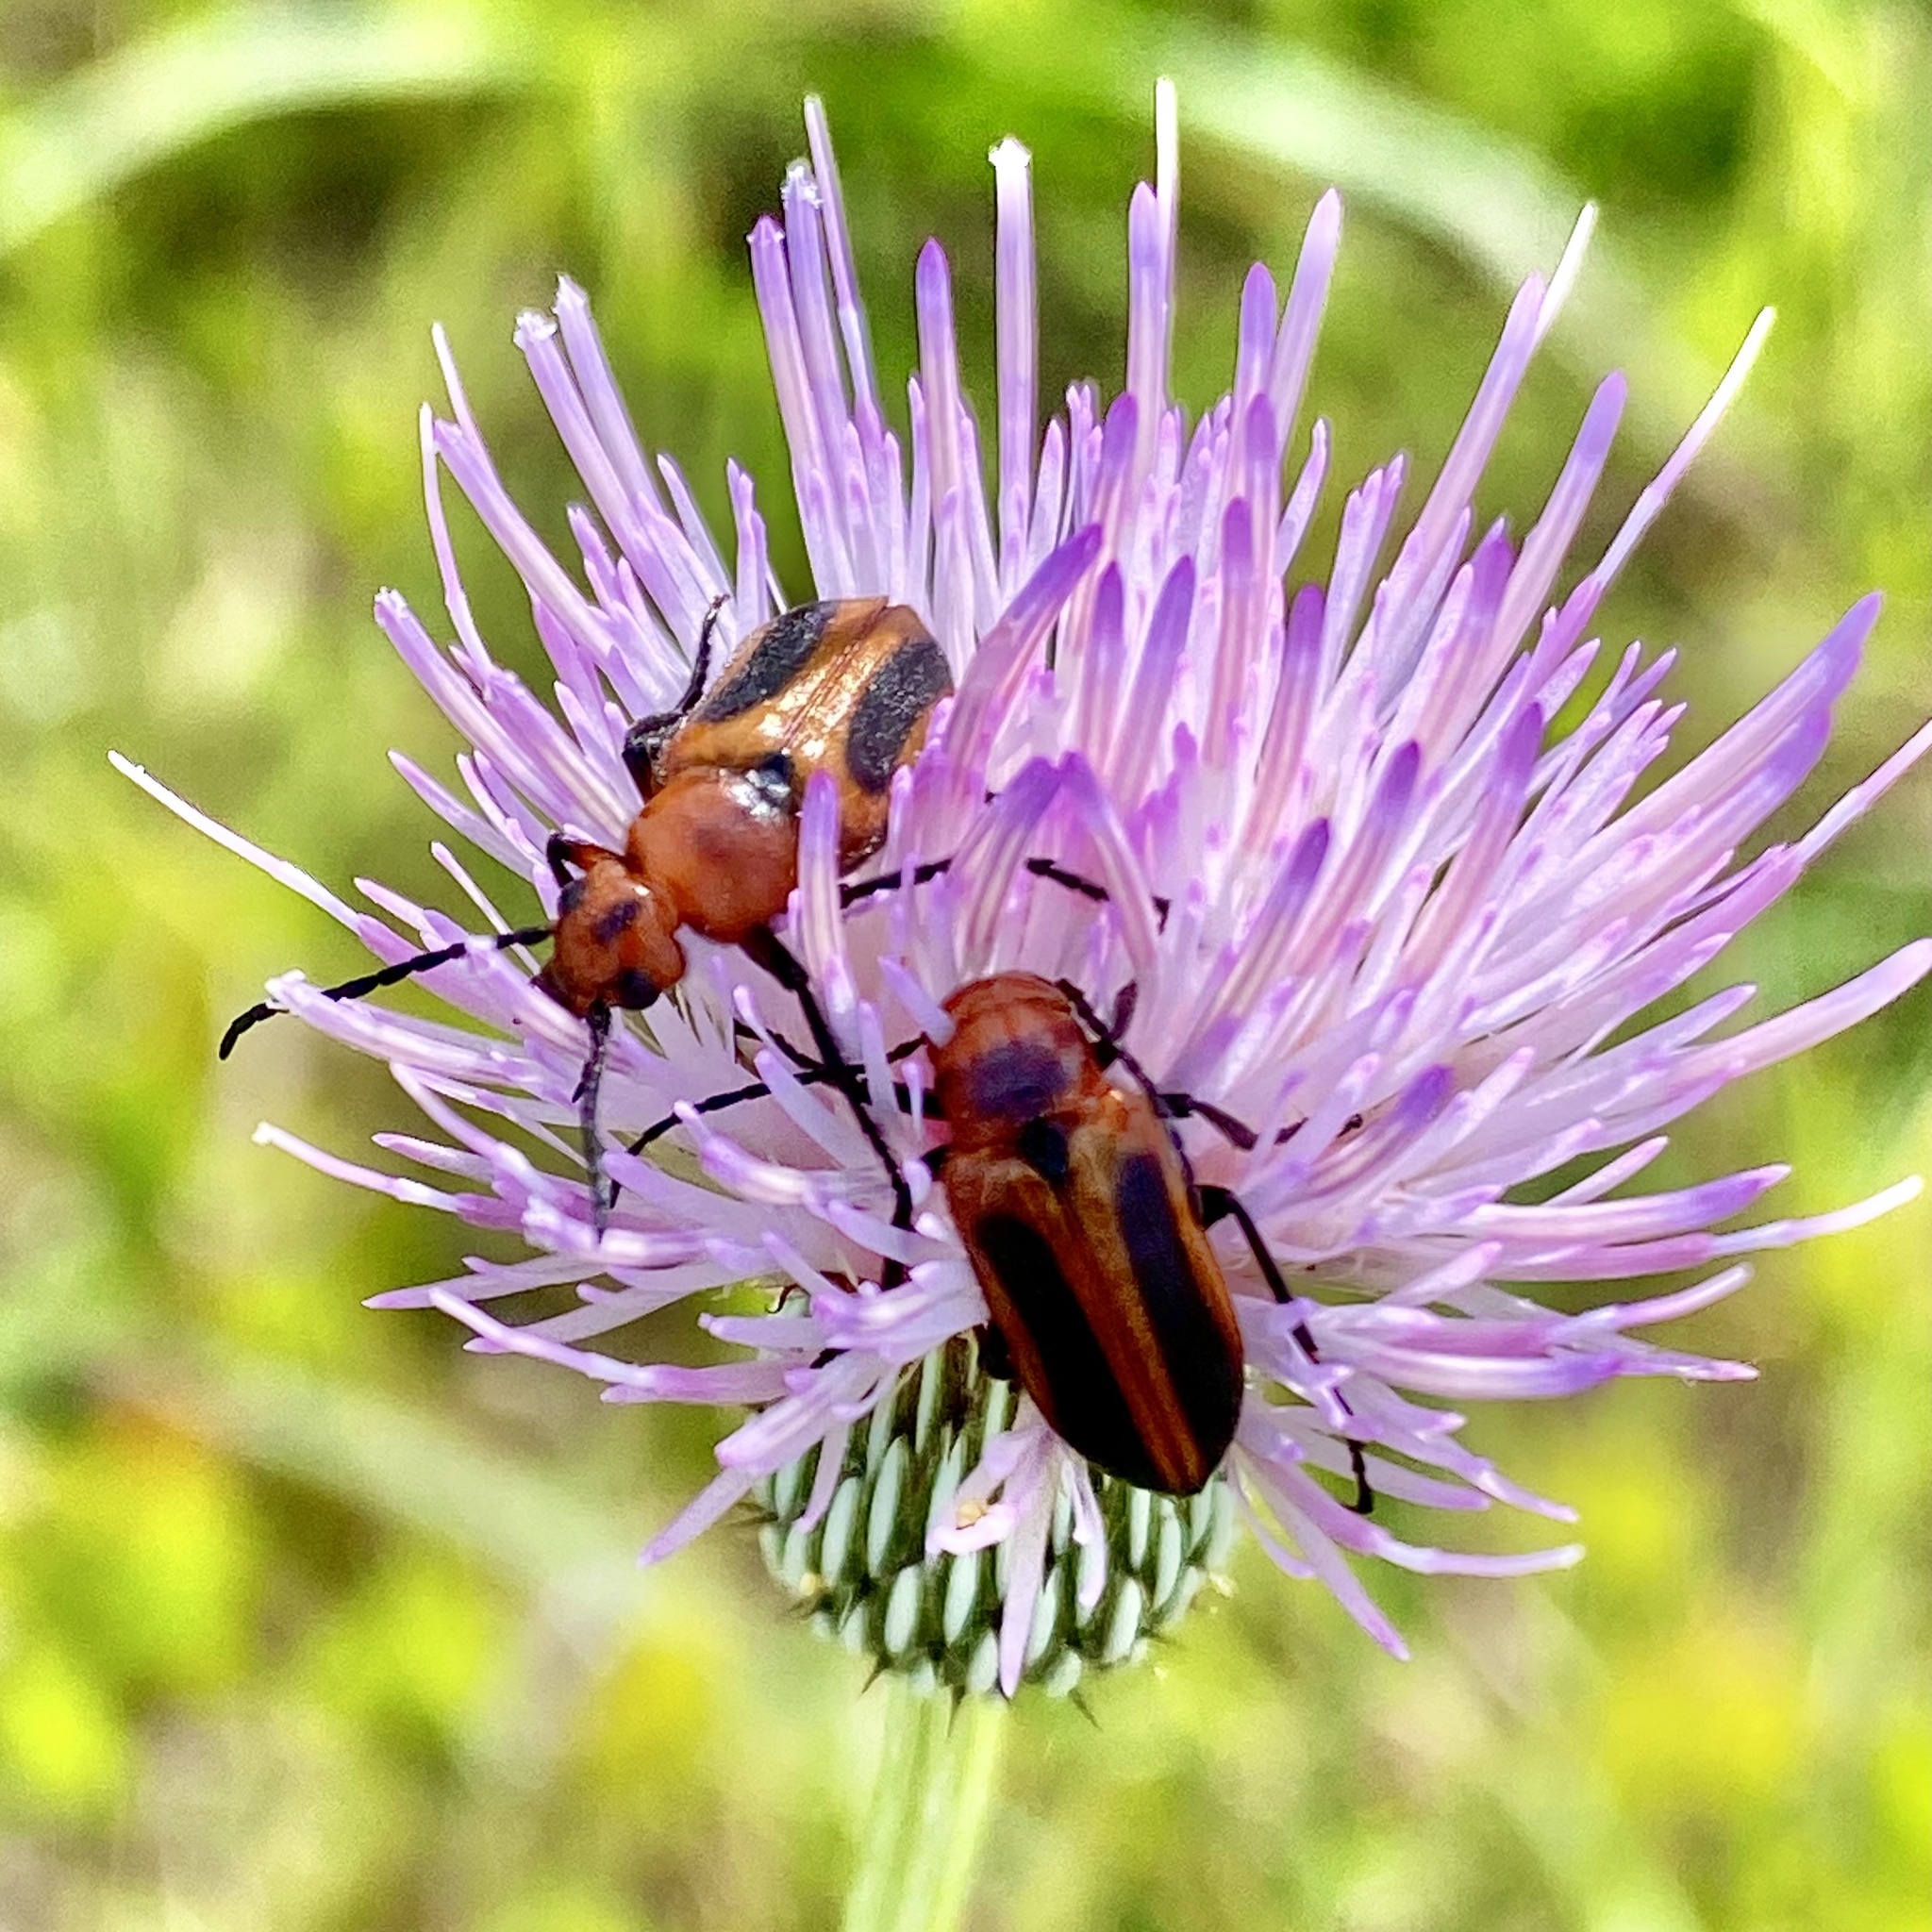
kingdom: Animalia
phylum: Arthropoda
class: Insecta
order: Coleoptera
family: Meloidae
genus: Nemognatha
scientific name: Nemognatha piazata
